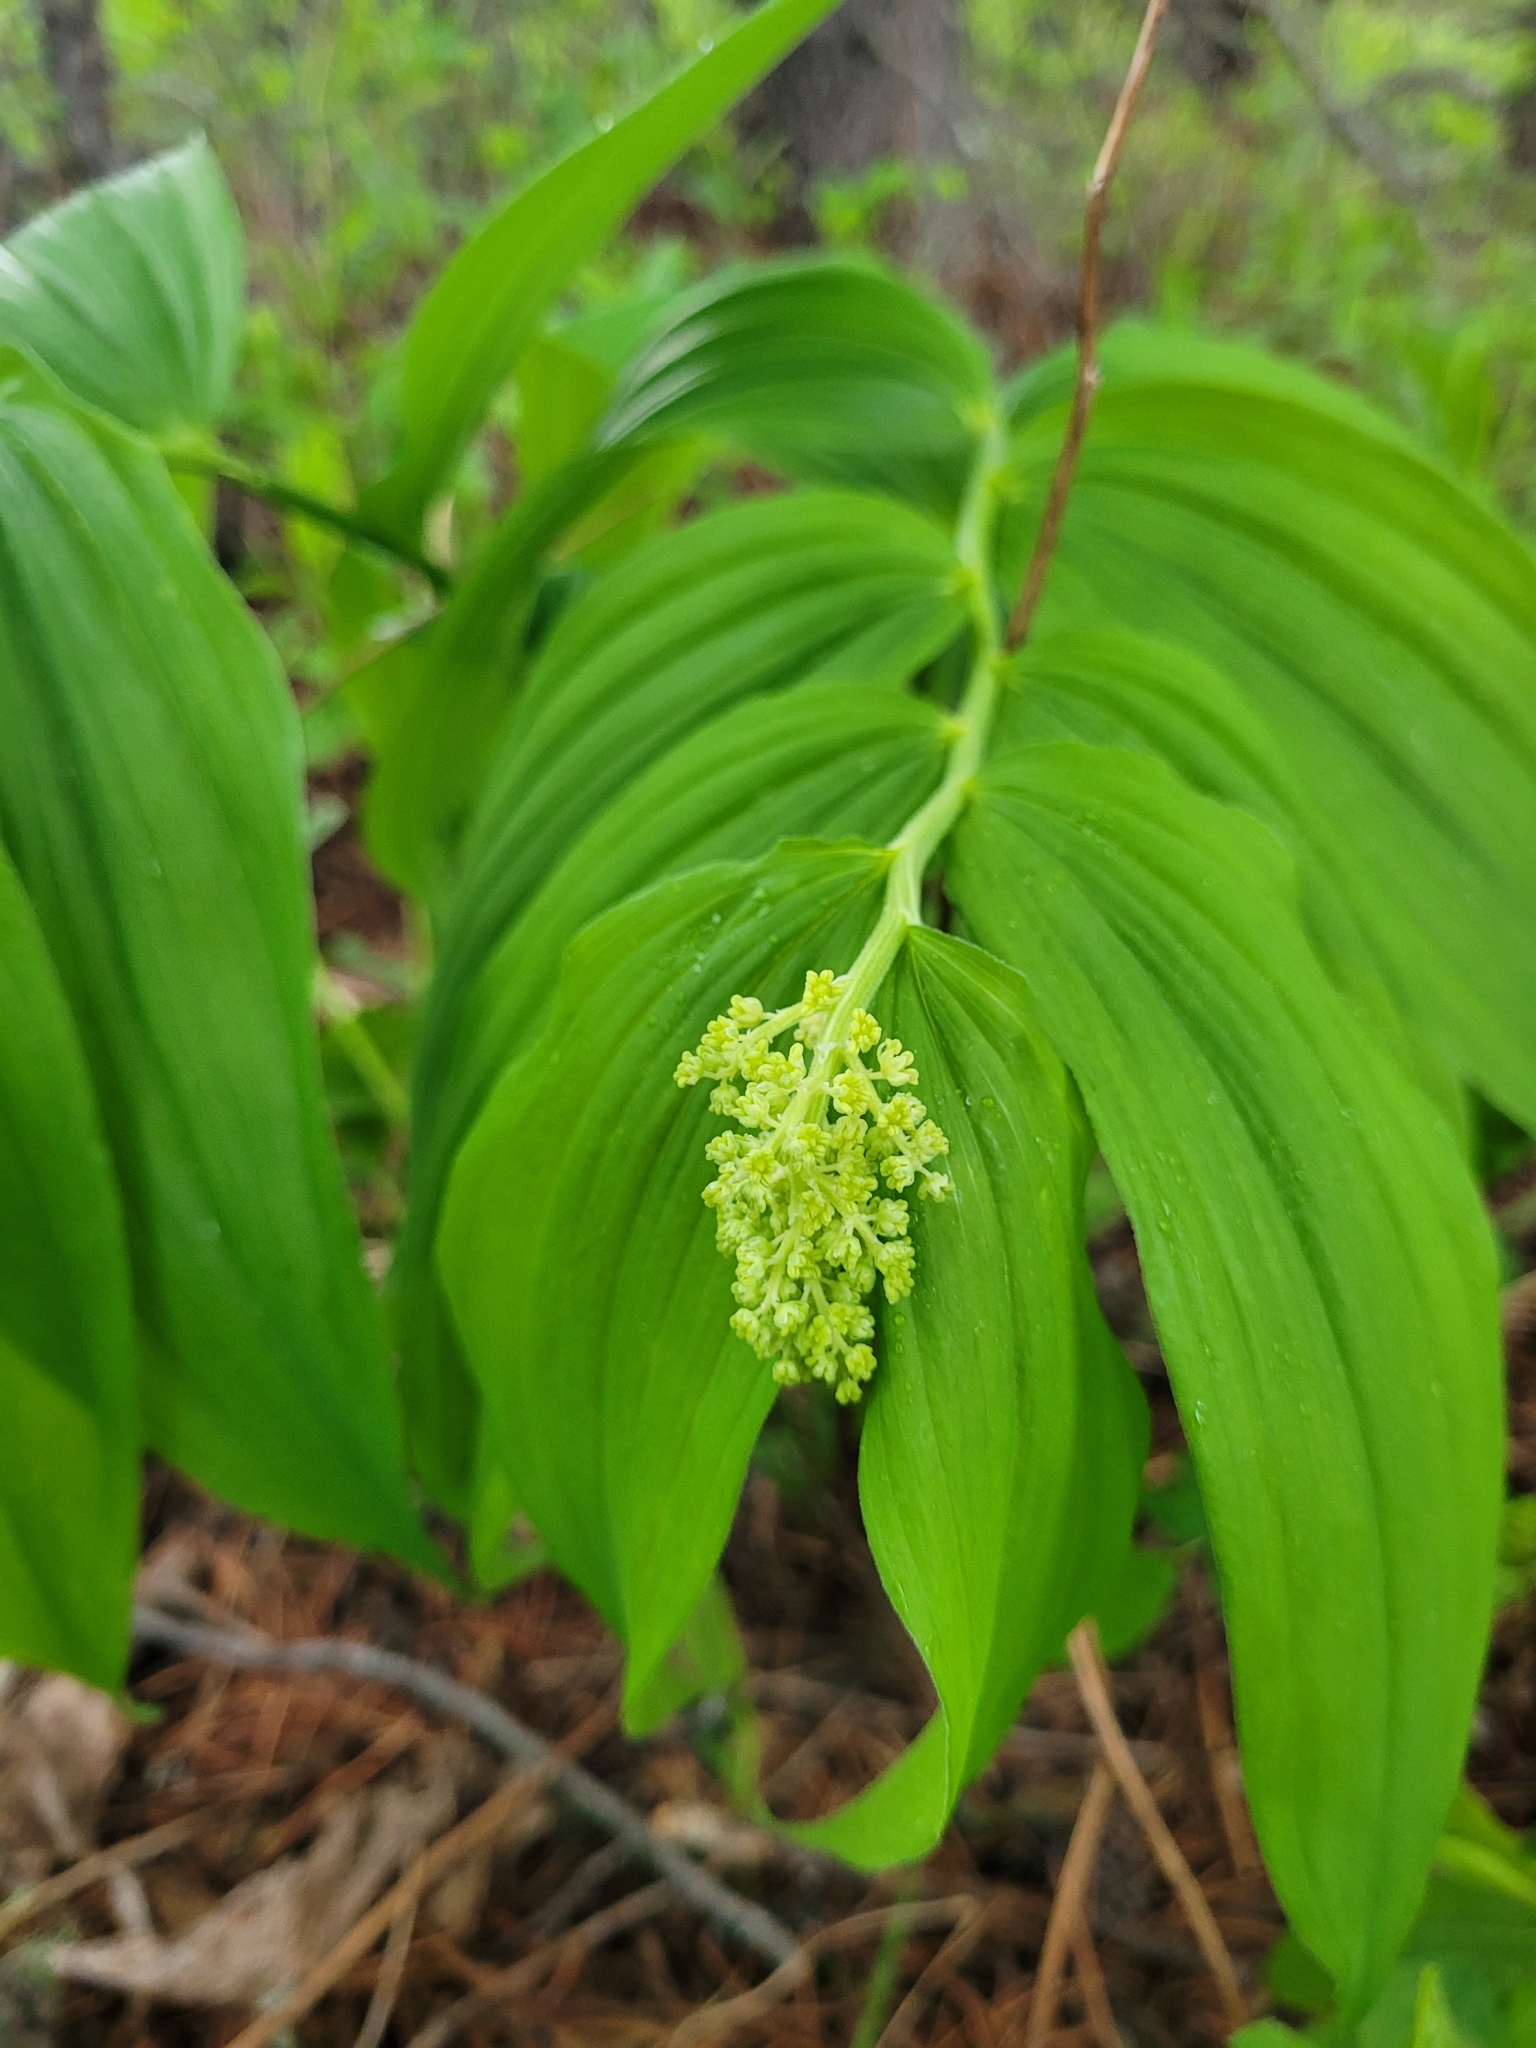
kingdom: Plantae
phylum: Tracheophyta
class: Liliopsida
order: Asparagales
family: Asparagaceae
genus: Maianthemum
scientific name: Maianthemum racemosum
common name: False spikenard
